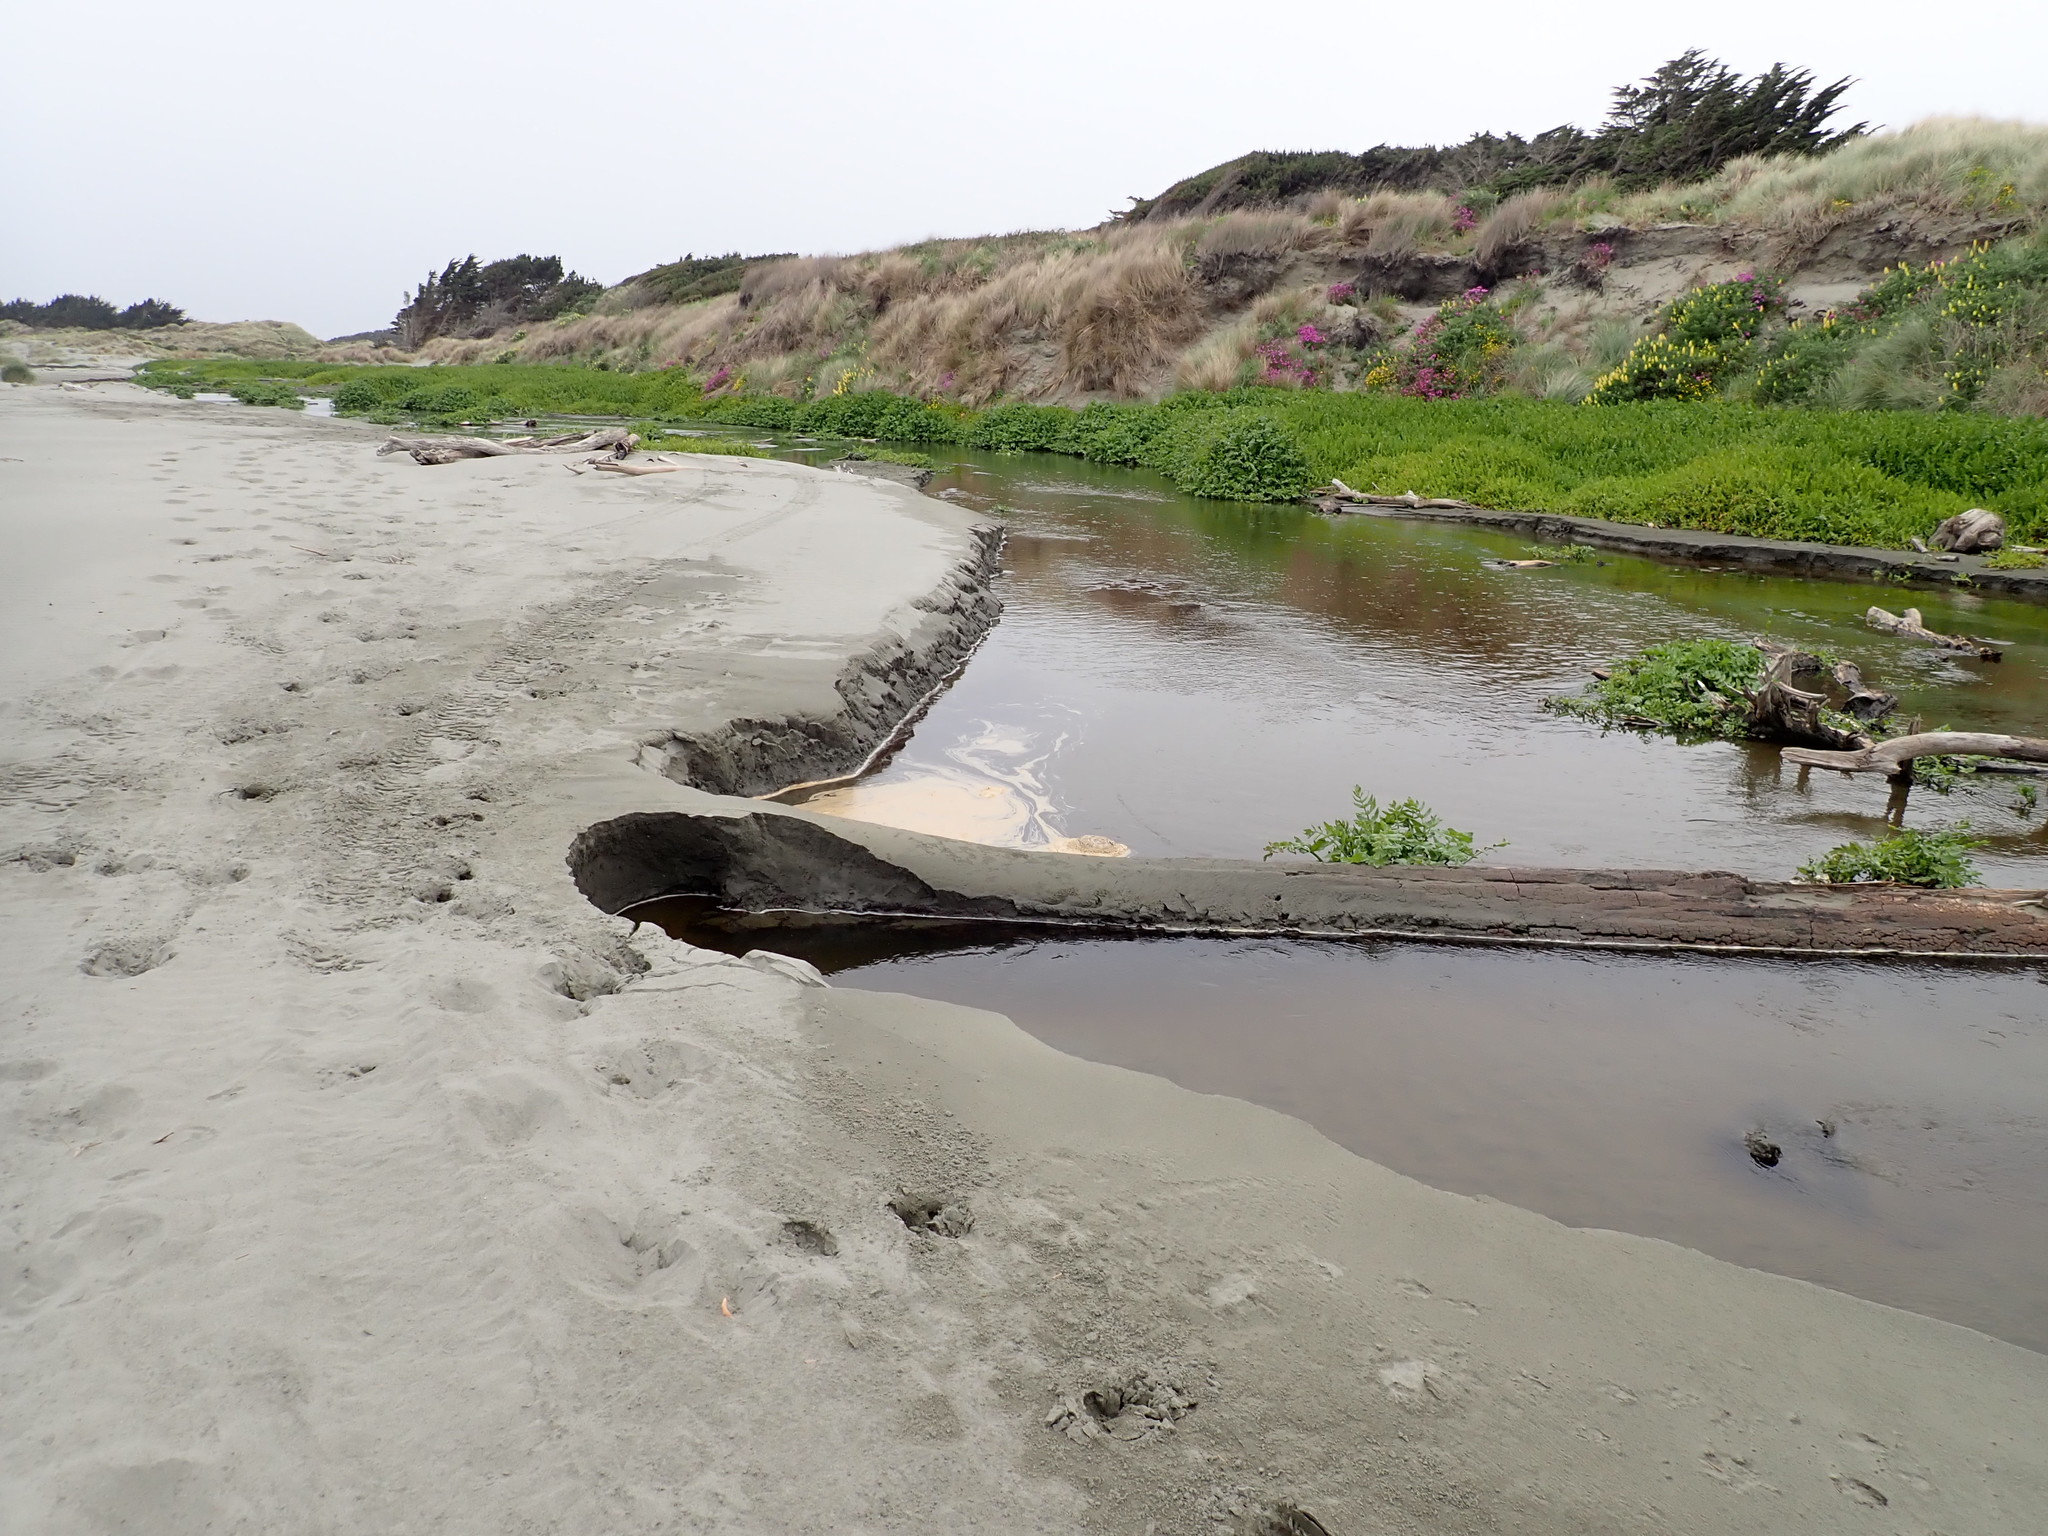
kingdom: Plantae
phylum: Tracheophyta
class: Magnoliopsida
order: Apiales
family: Apiaceae
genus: Helosciadium
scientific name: Helosciadium nodiflorum
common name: Fool's-watercress
